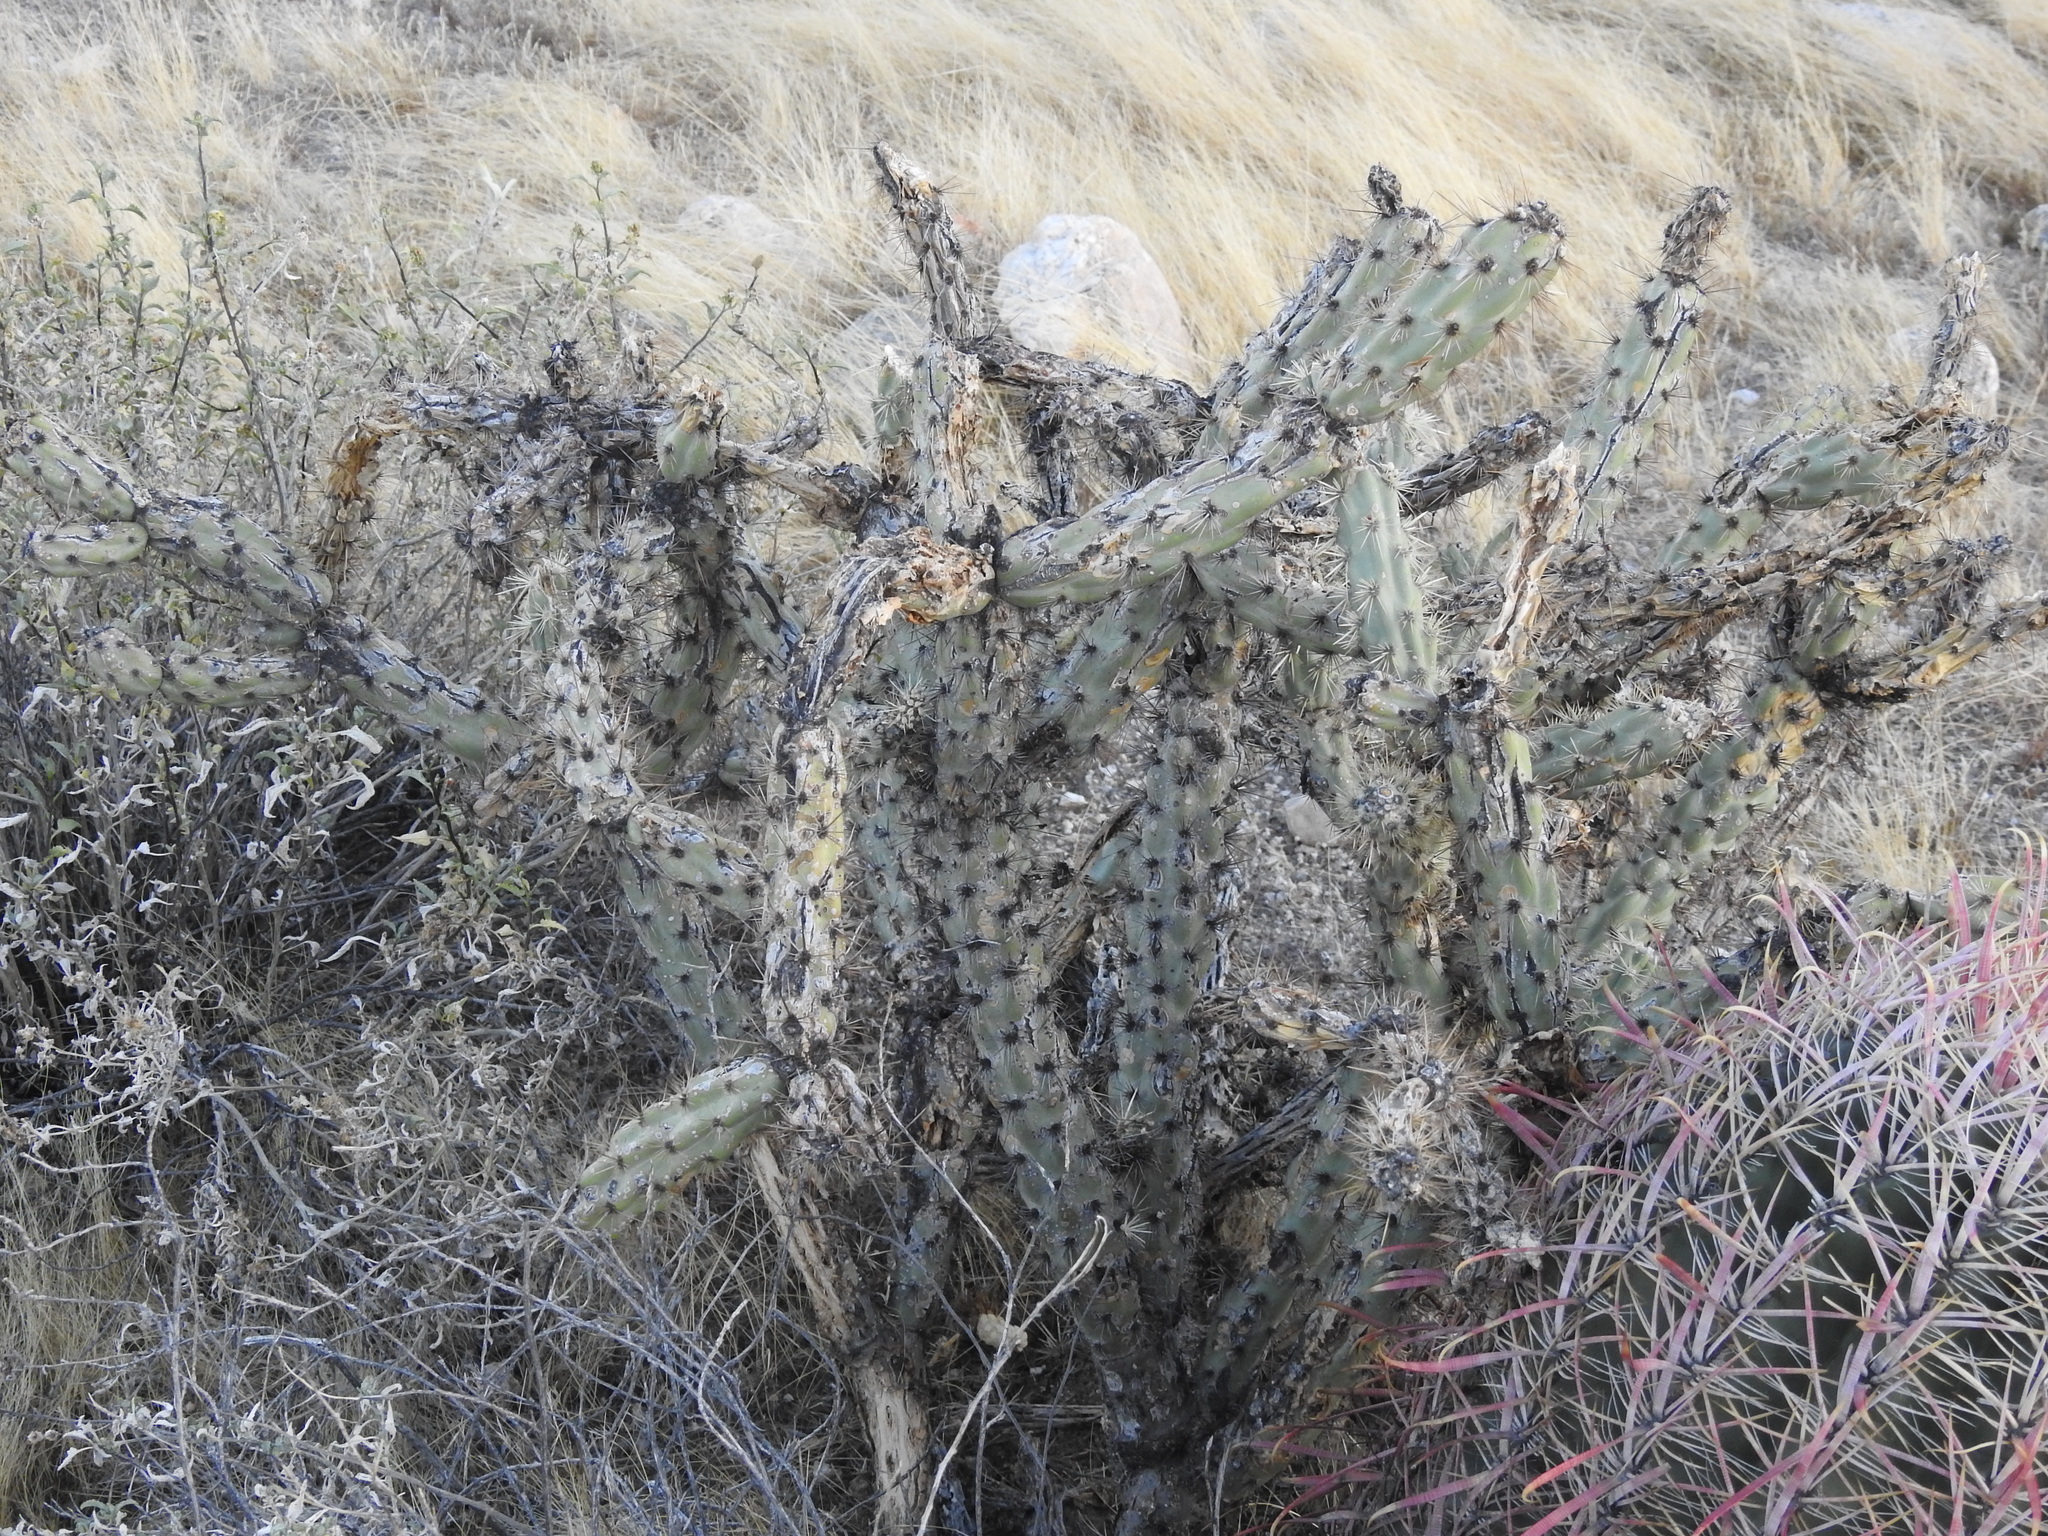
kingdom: Plantae
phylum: Tracheophyta
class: Magnoliopsida
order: Caryophyllales
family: Cactaceae
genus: Cylindropuntia
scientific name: Cylindropuntia acanthocarpa
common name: Buckhorn cholla
